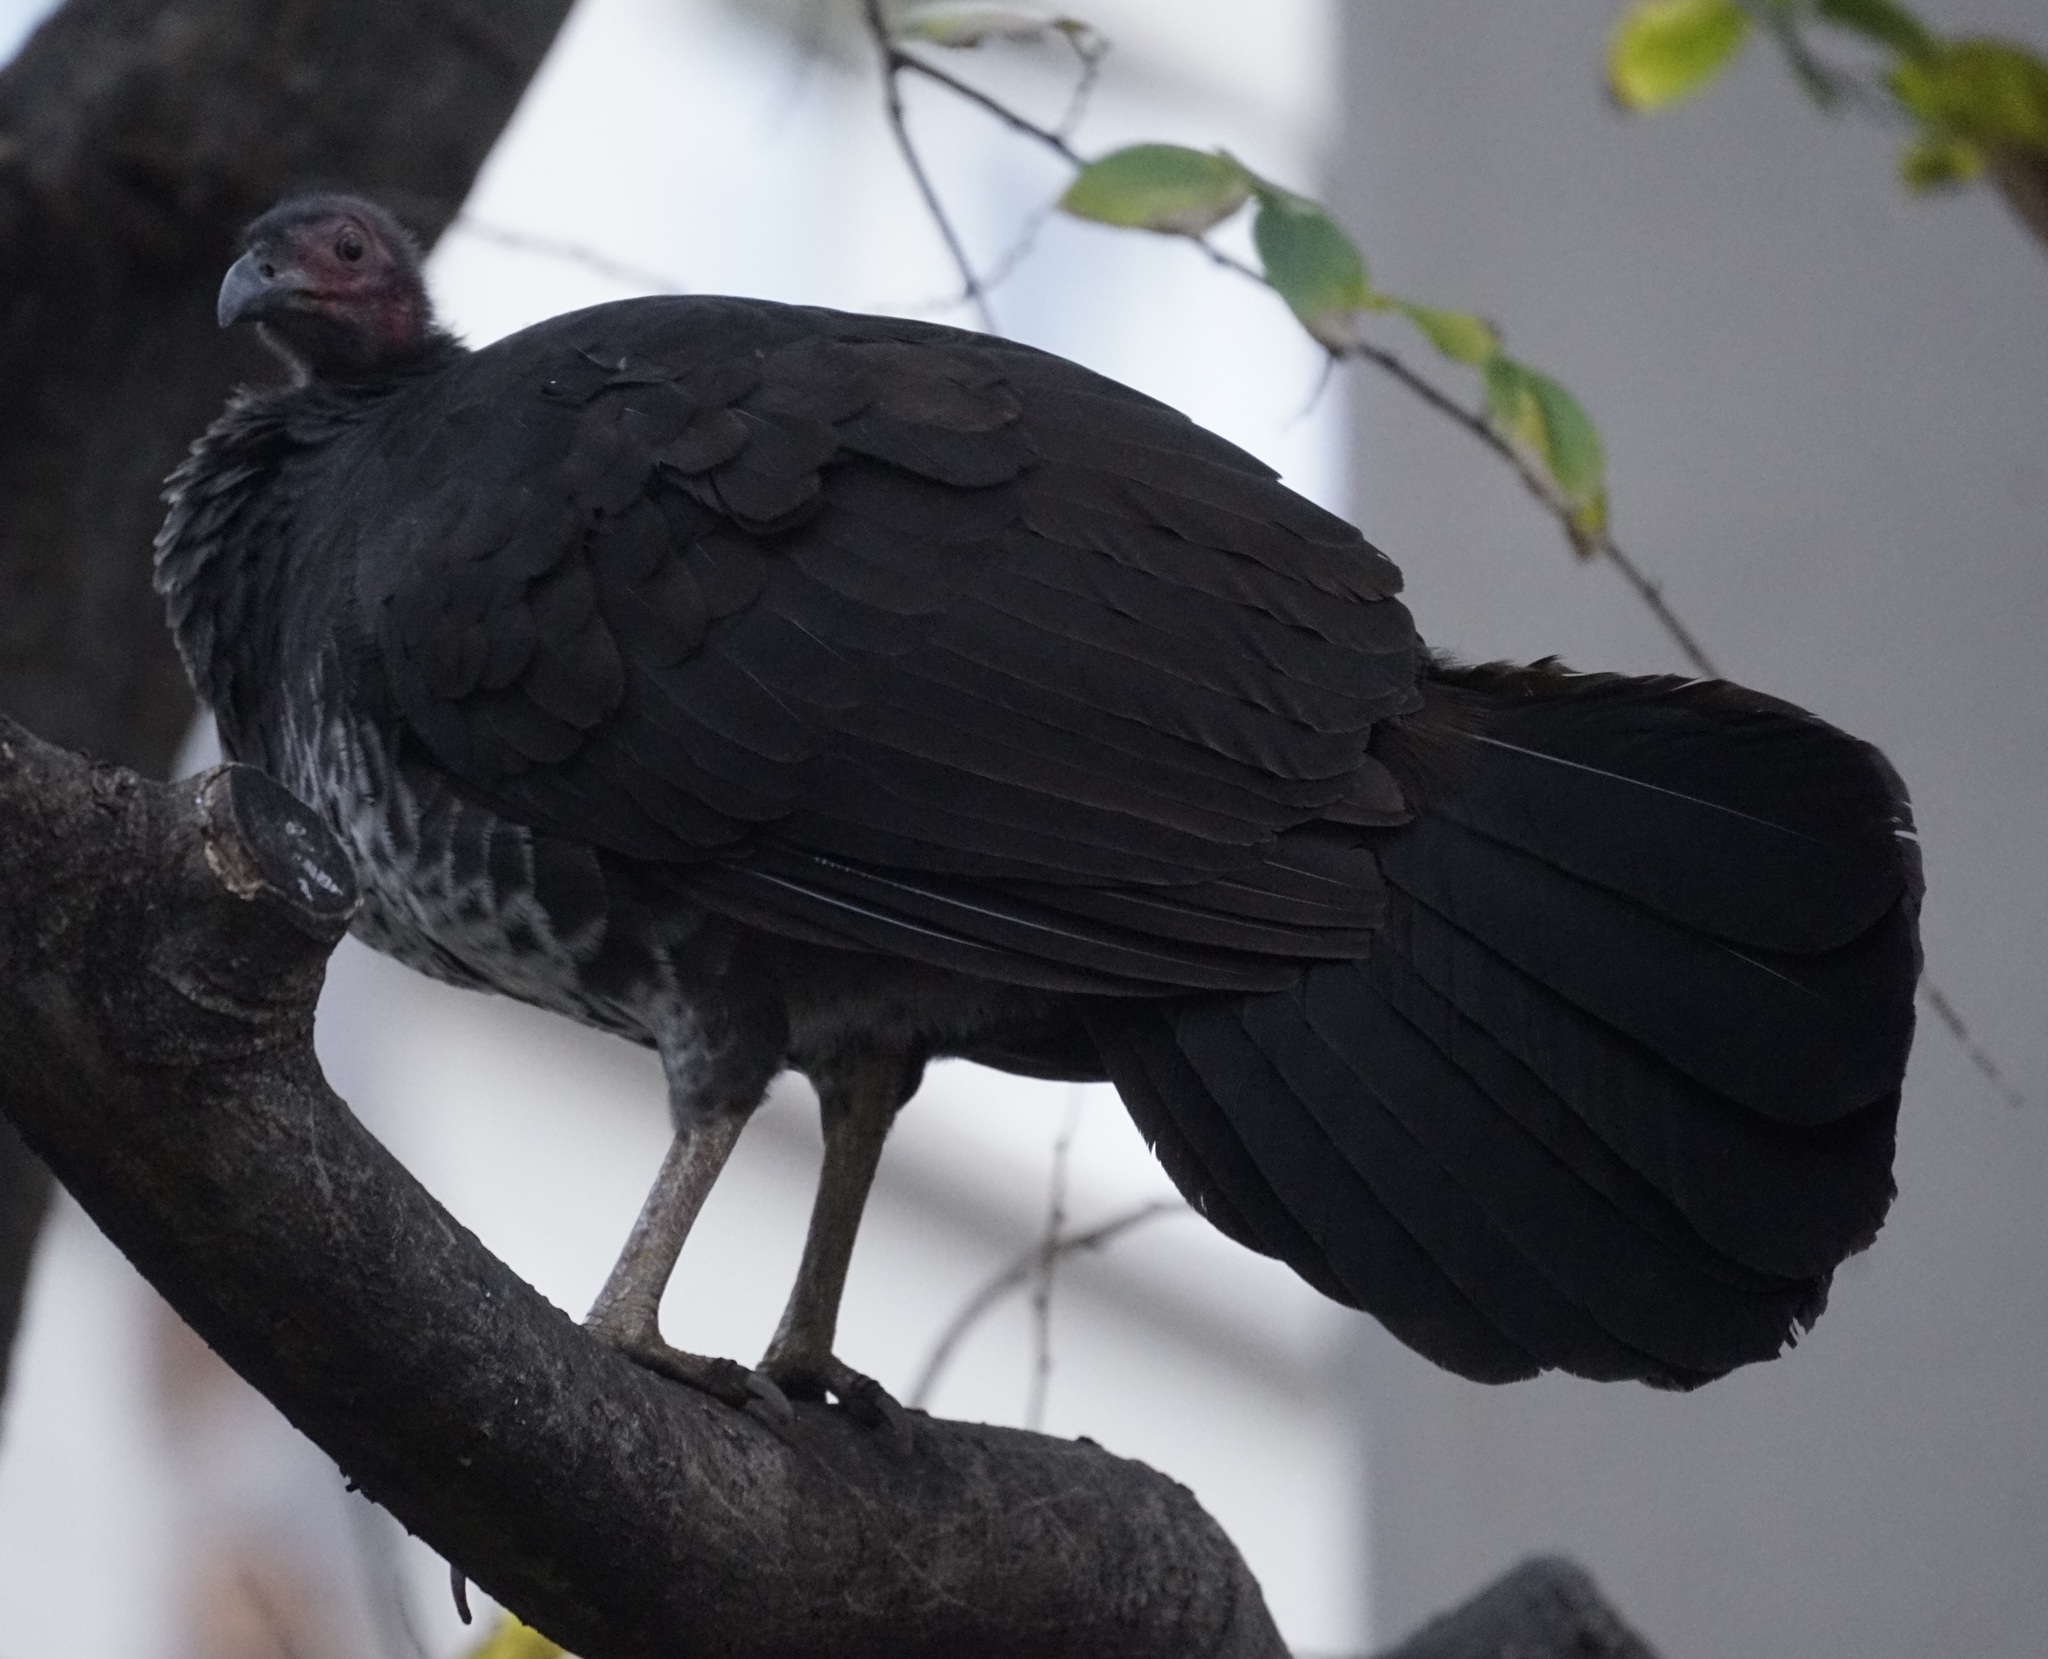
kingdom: Animalia
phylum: Chordata
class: Aves
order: Galliformes
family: Megapodiidae
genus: Alectura
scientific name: Alectura lathami
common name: Australian brushturkey
